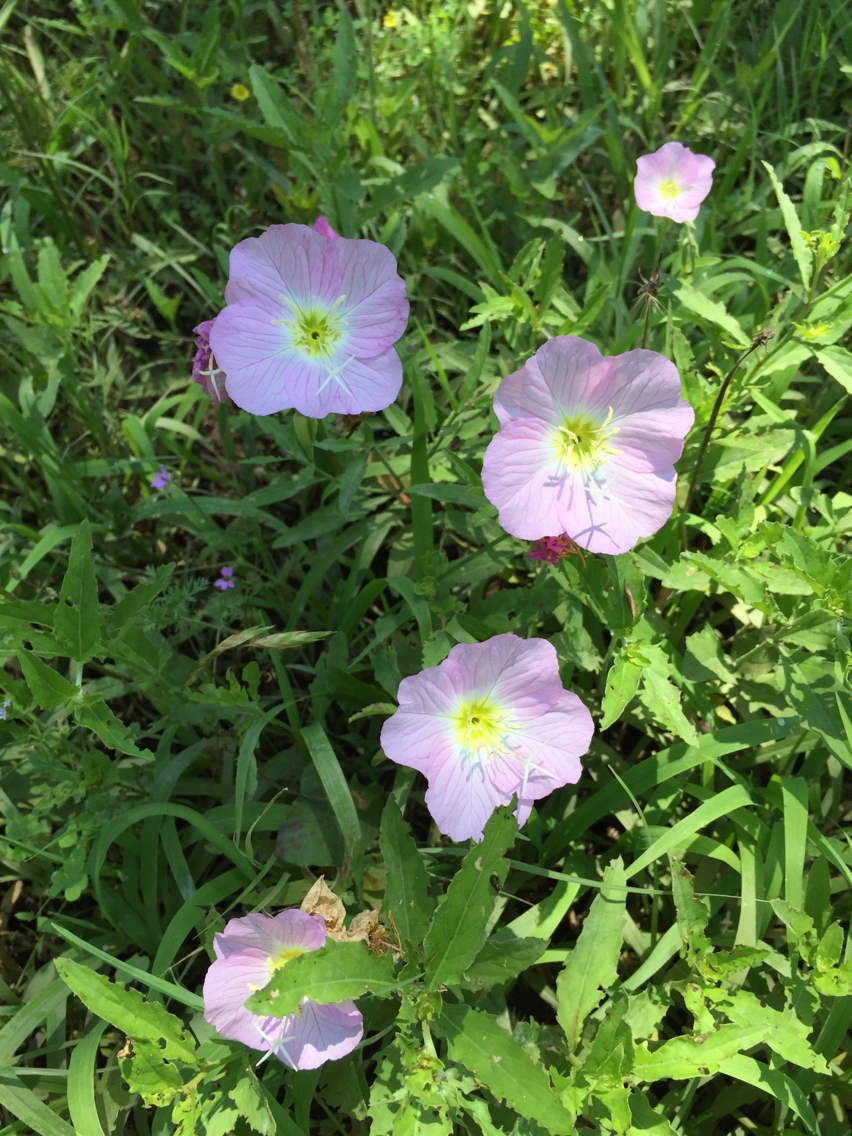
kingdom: Plantae
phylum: Tracheophyta
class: Magnoliopsida
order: Myrtales
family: Onagraceae
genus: Oenothera
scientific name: Oenothera speciosa
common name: White evening-primrose
